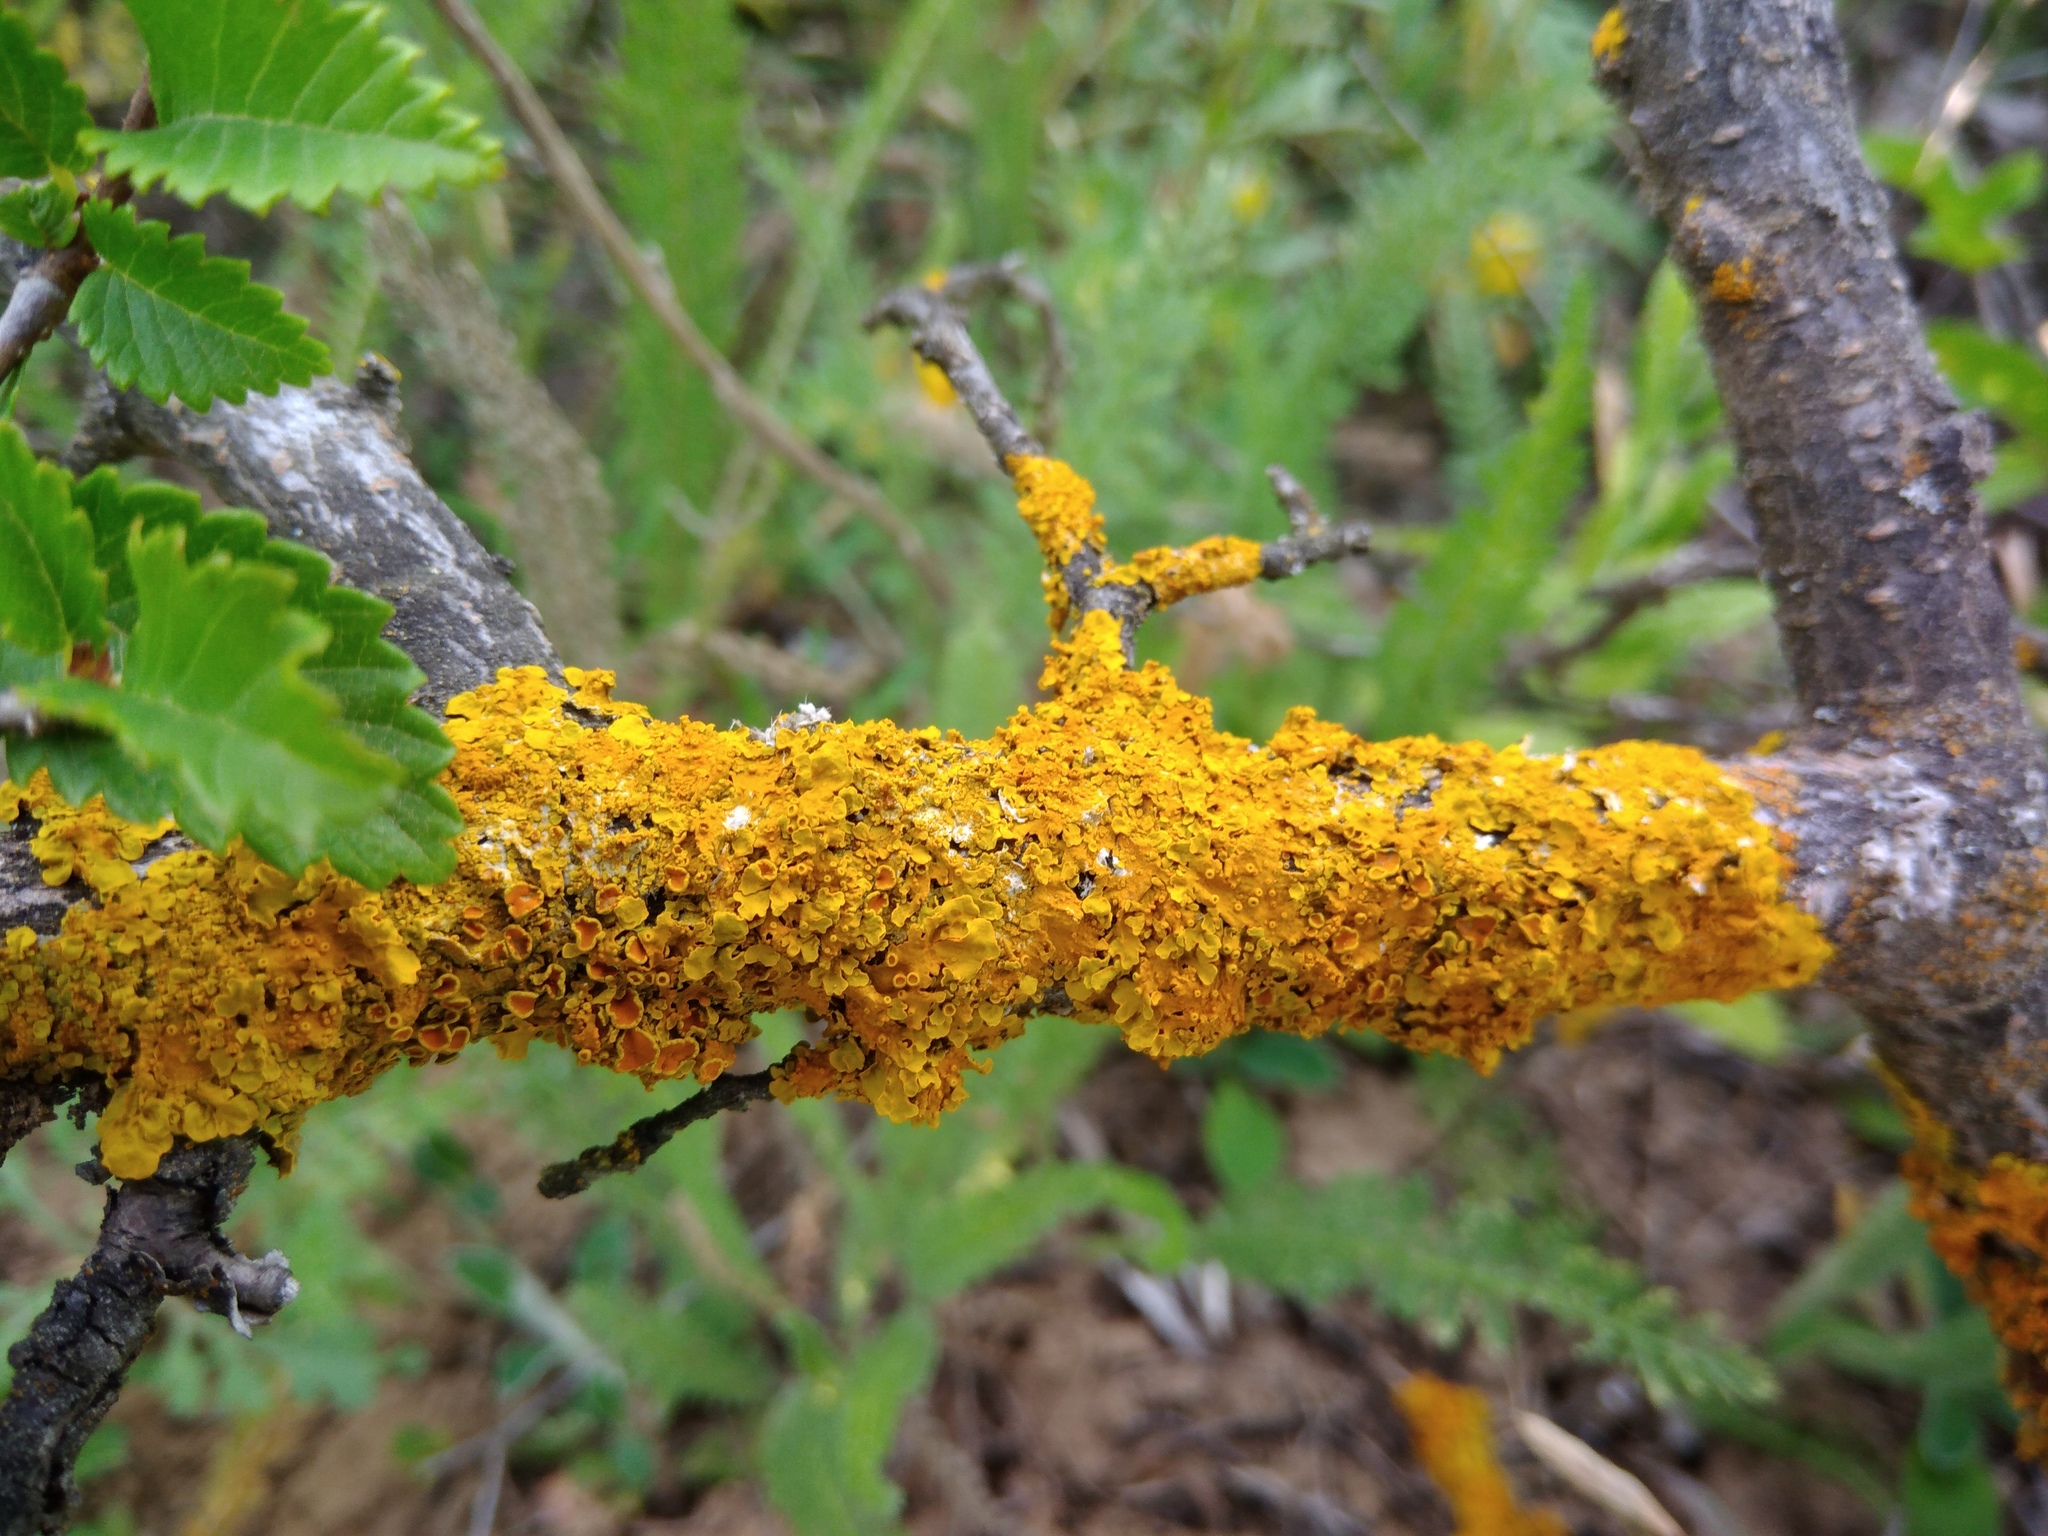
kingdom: Fungi
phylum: Ascomycota
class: Lecanoromycetes
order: Teloschistales
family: Teloschistaceae
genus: Xanthoria
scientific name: Xanthoria parietina
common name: Common orange lichen
